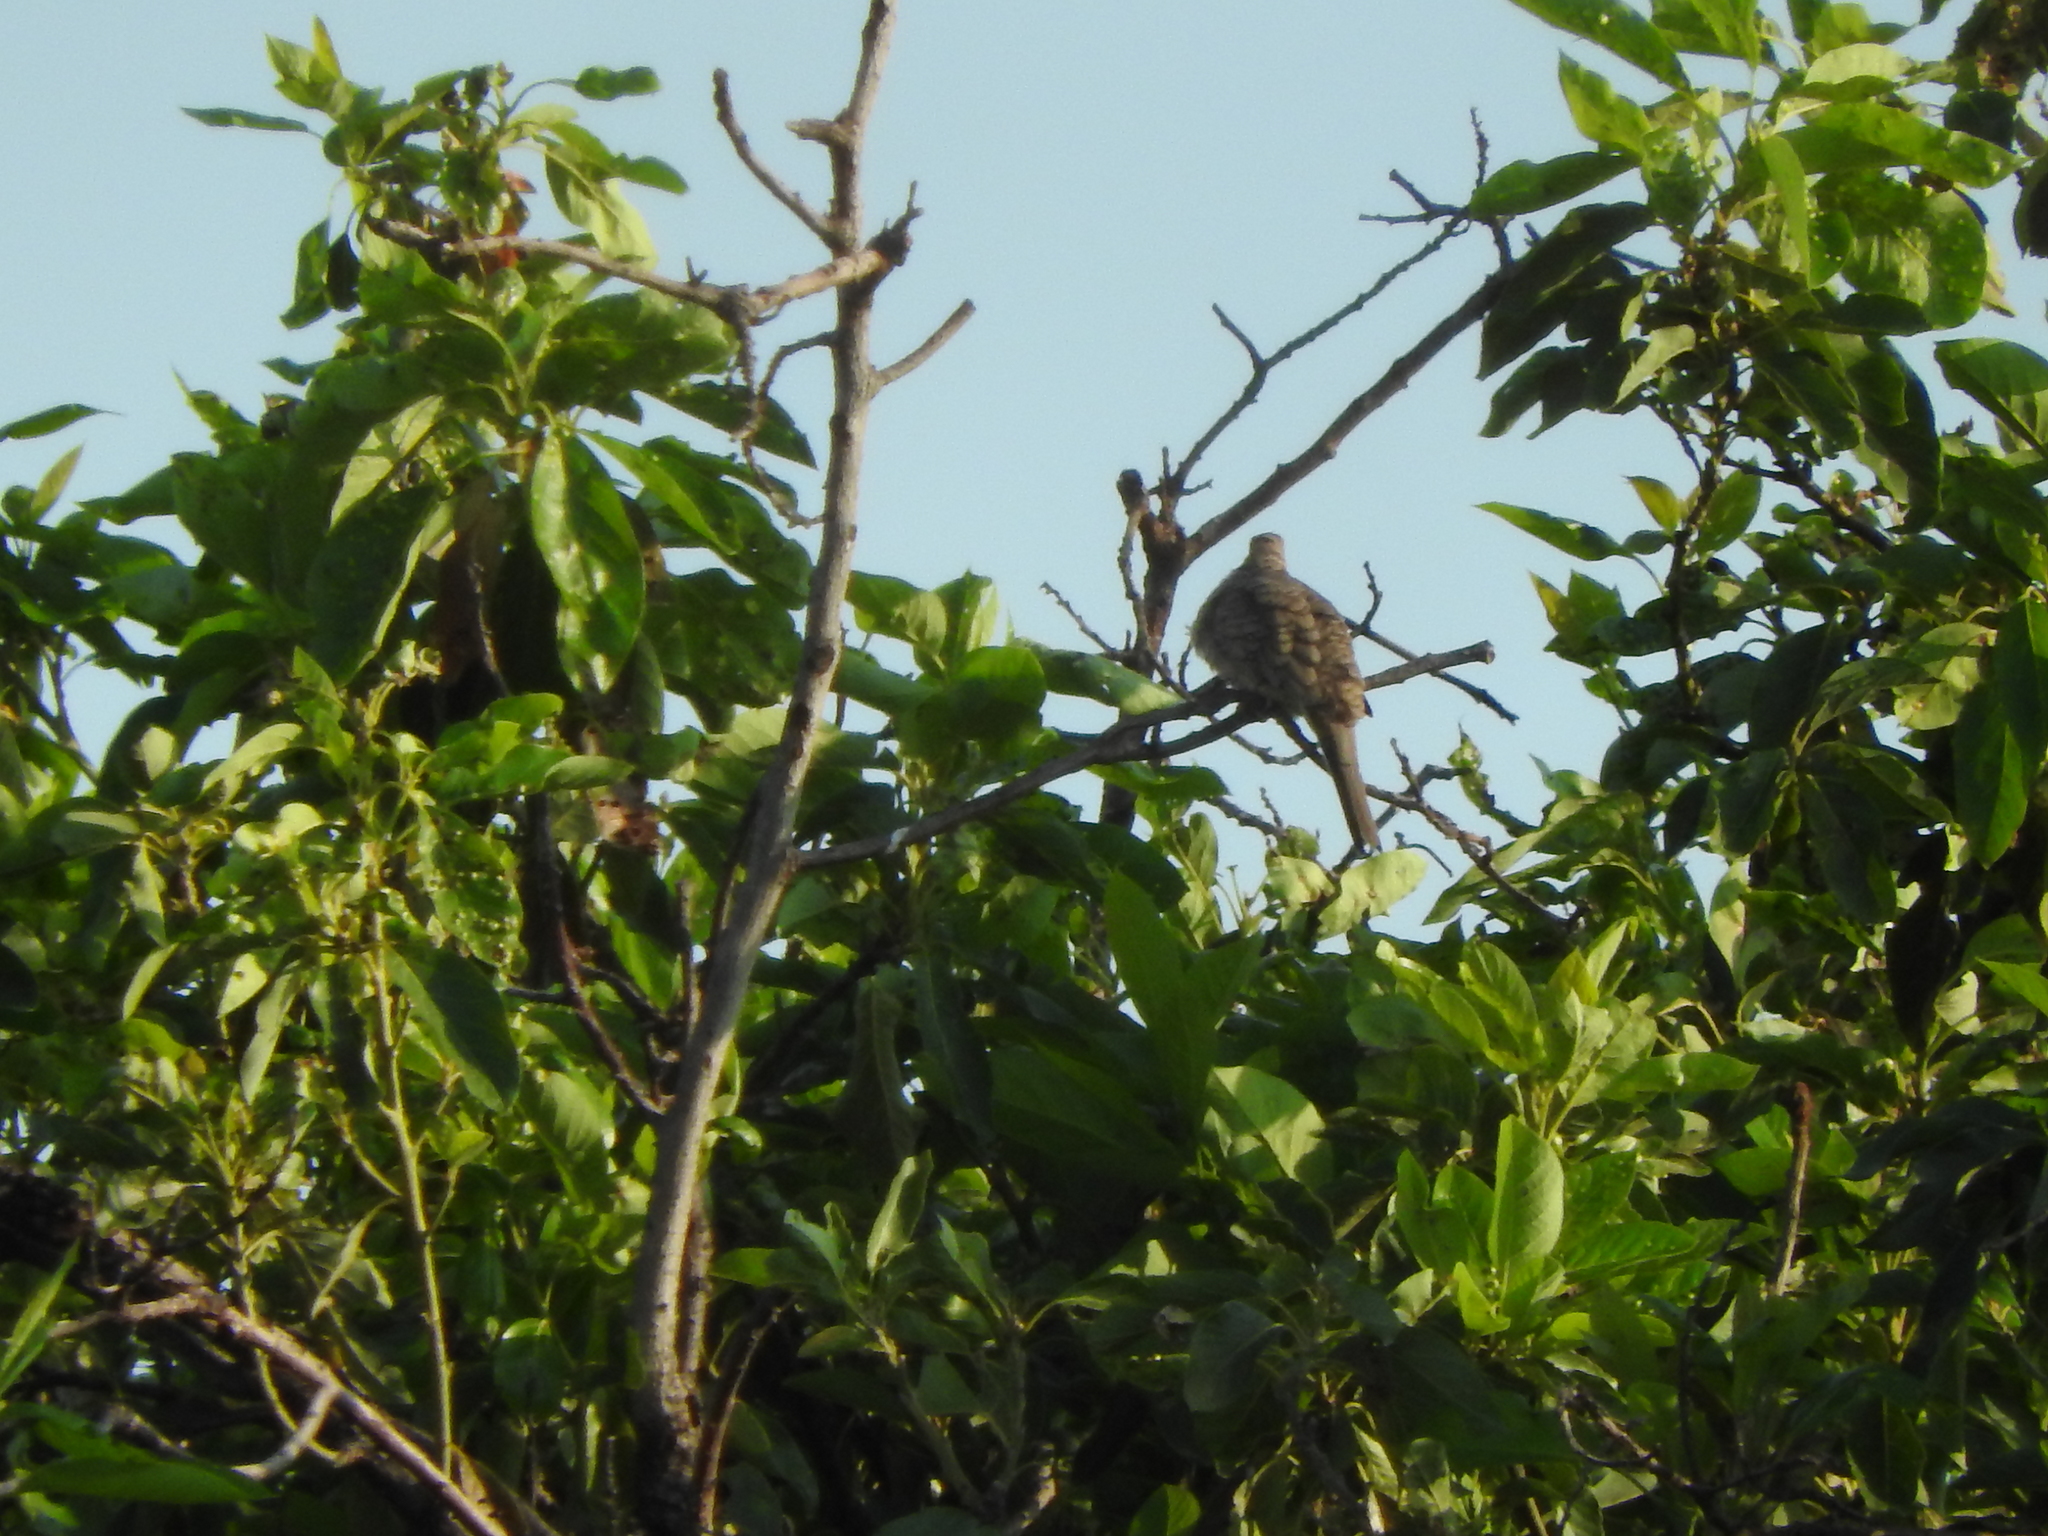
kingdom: Animalia
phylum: Chordata
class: Aves
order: Columbiformes
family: Columbidae
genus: Columbina
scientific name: Columbina inca
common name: Inca dove
